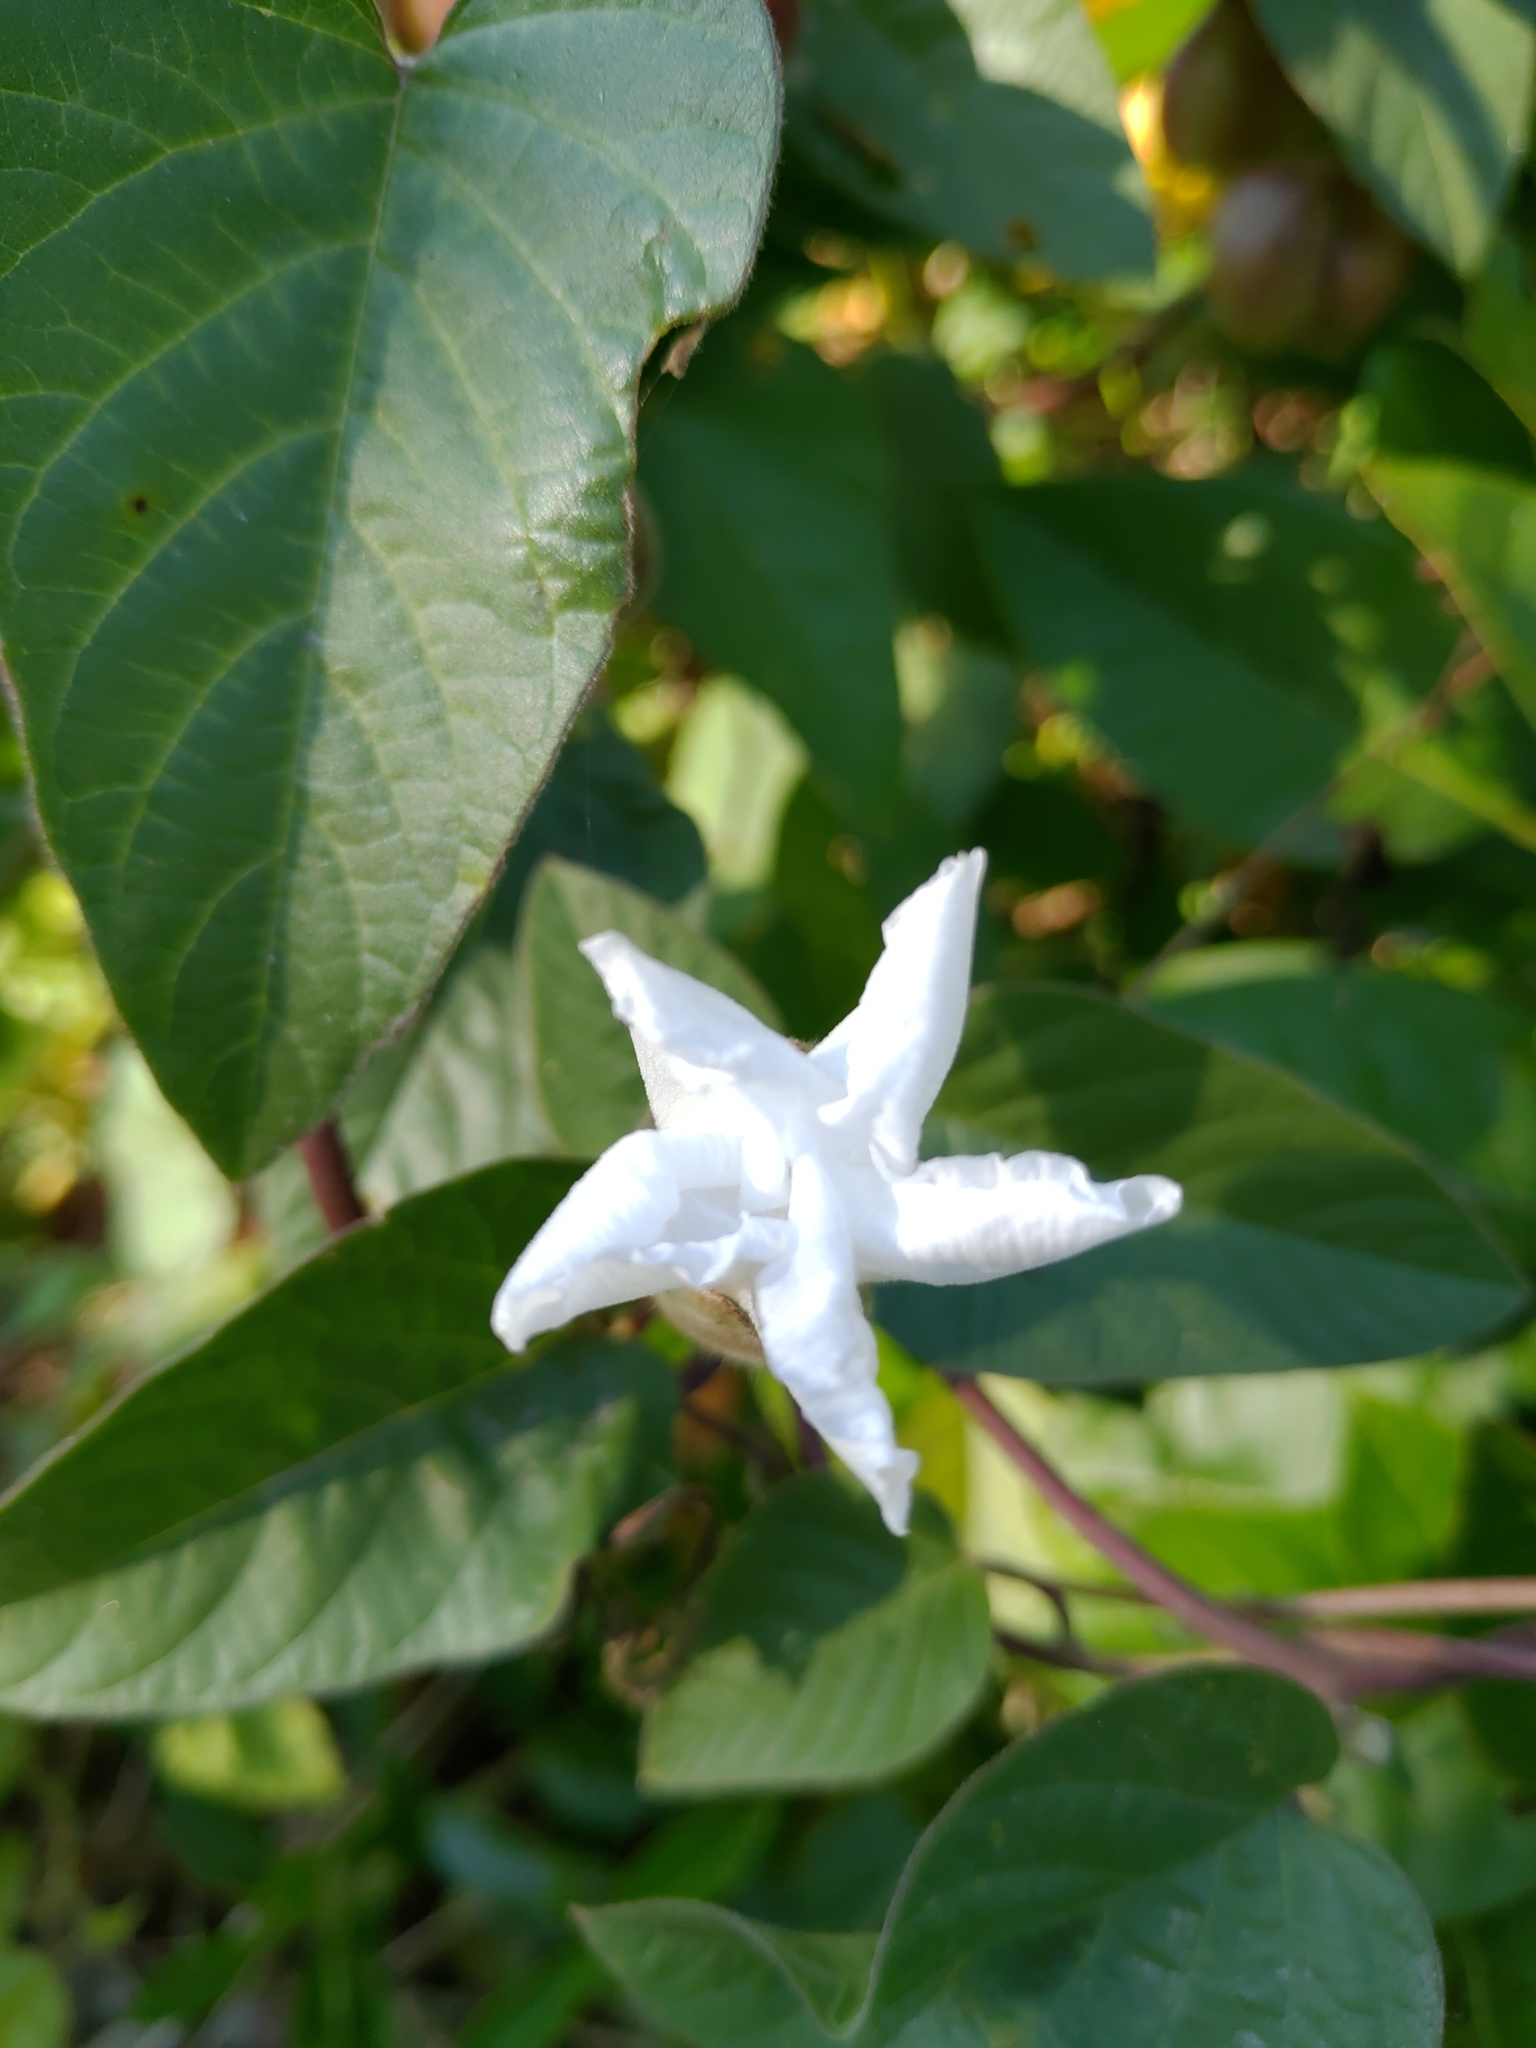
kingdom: Plantae
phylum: Tracheophyta
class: Magnoliopsida
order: Solanales
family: Convolvulaceae
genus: Operculina
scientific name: Operculina turpethum
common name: Transparent wood-rose
